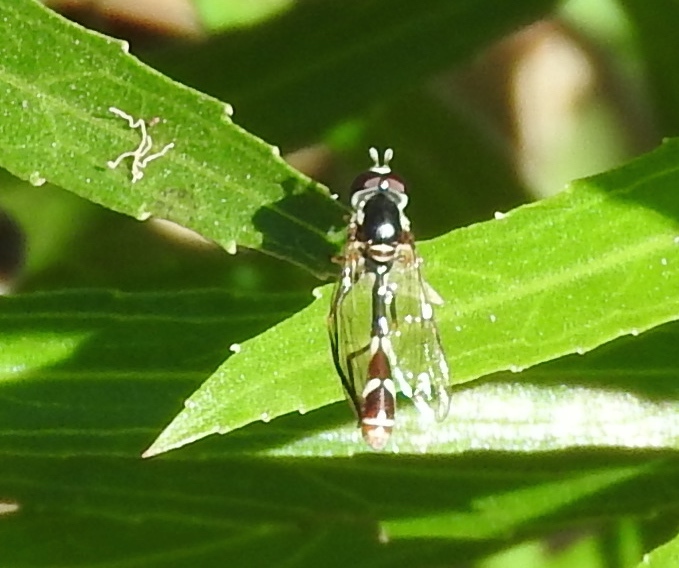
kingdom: Animalia
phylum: Arthropoda
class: Insecta
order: Diptera
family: Syrphidae
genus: Dioprosopa
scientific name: Dioprosopa clavatus
